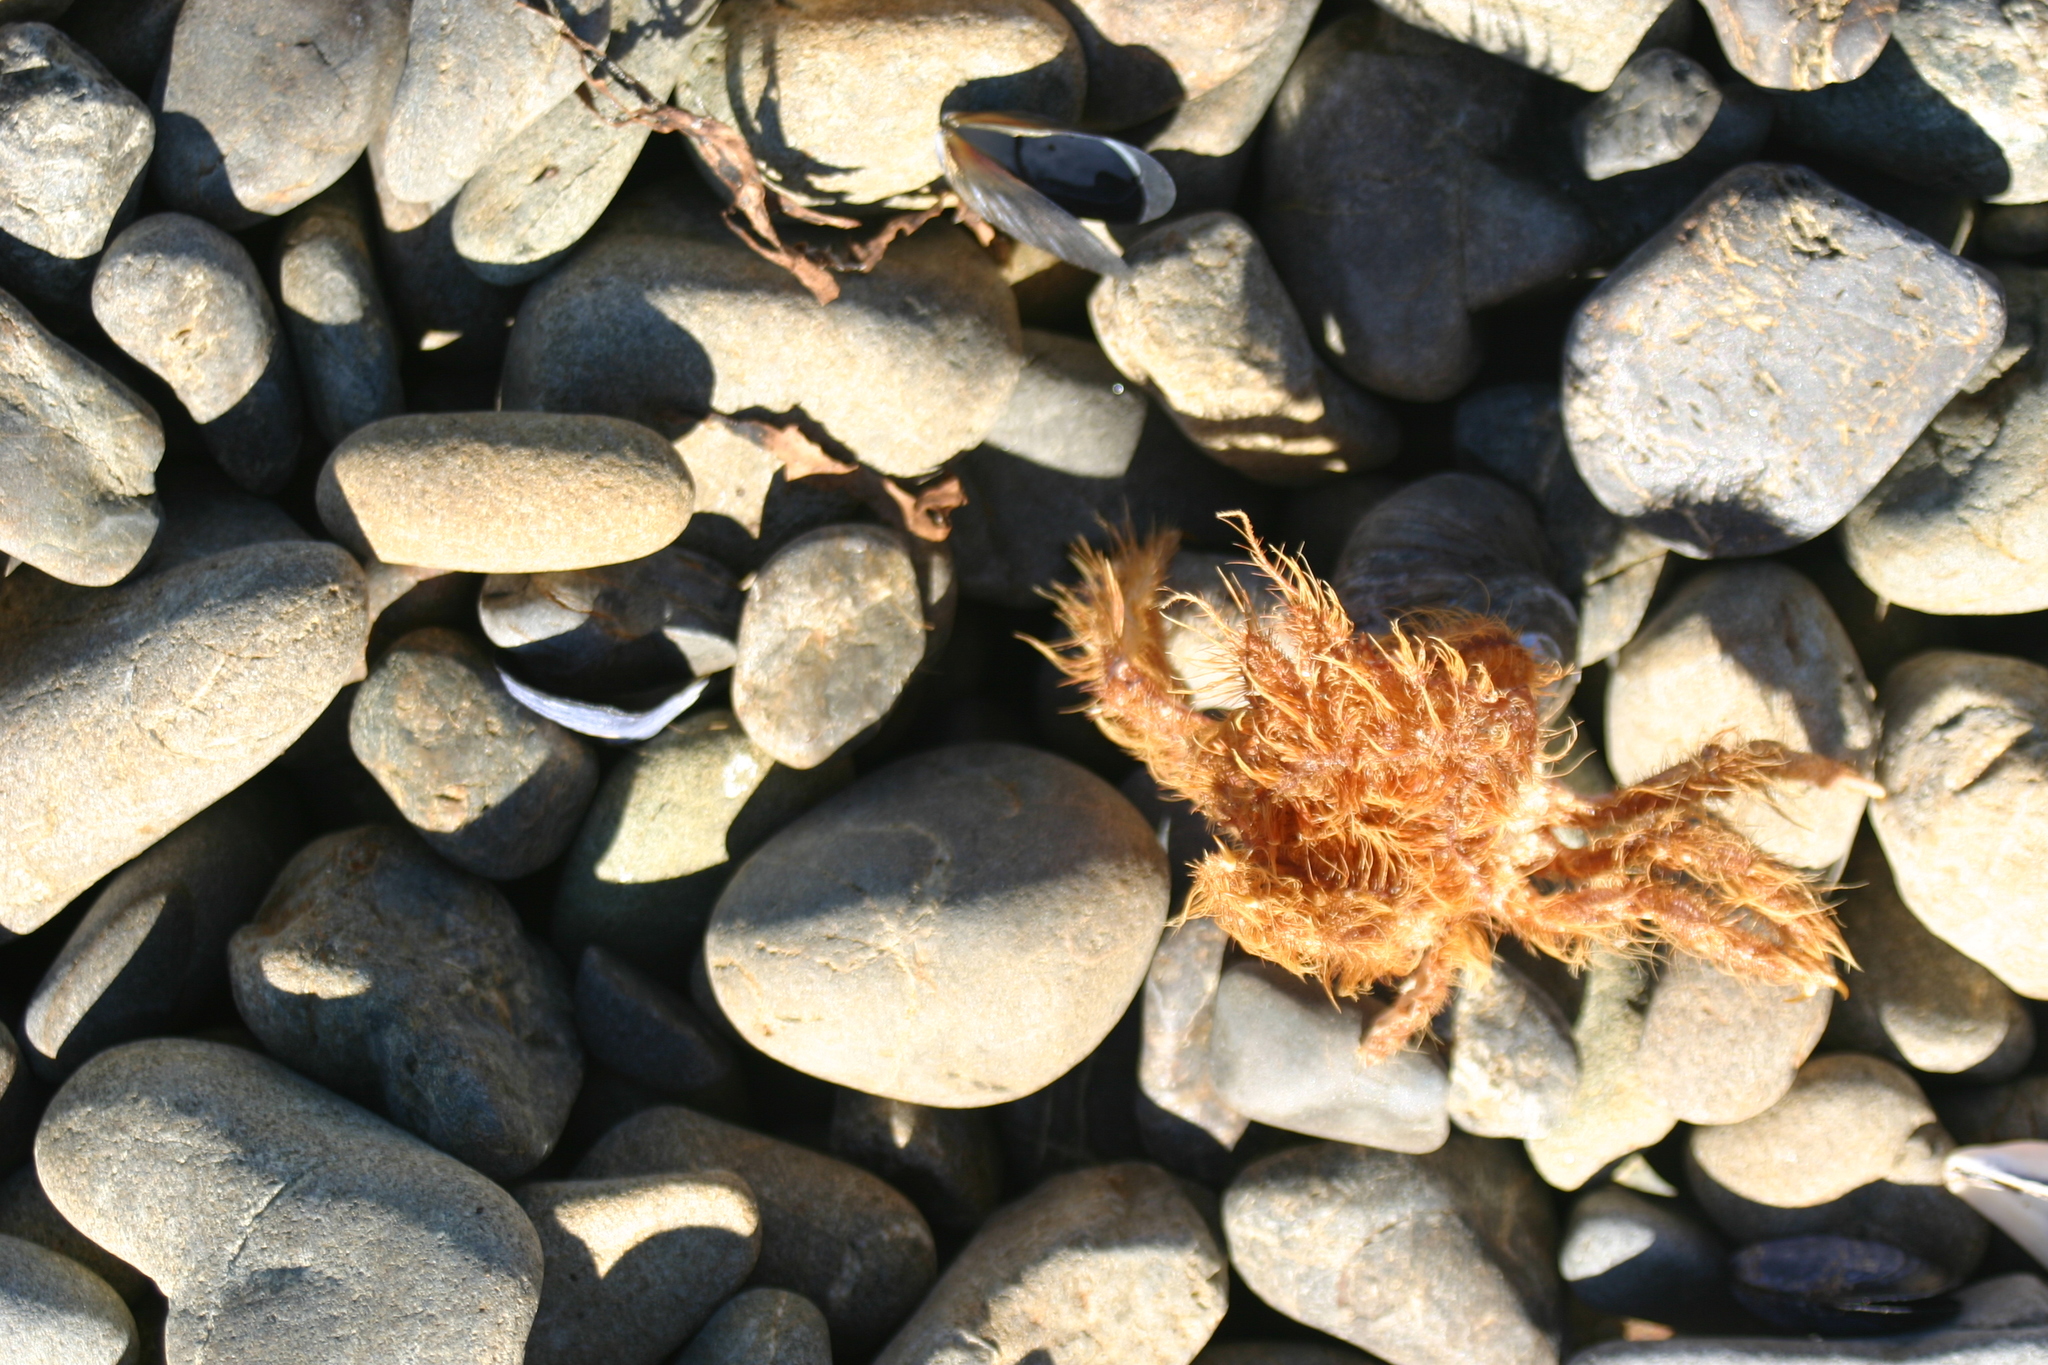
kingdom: Animalia
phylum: Arthropoda
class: Malacostraca
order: Decapoda
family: Majidae
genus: Notomithrax
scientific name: Notomithrax ursus
